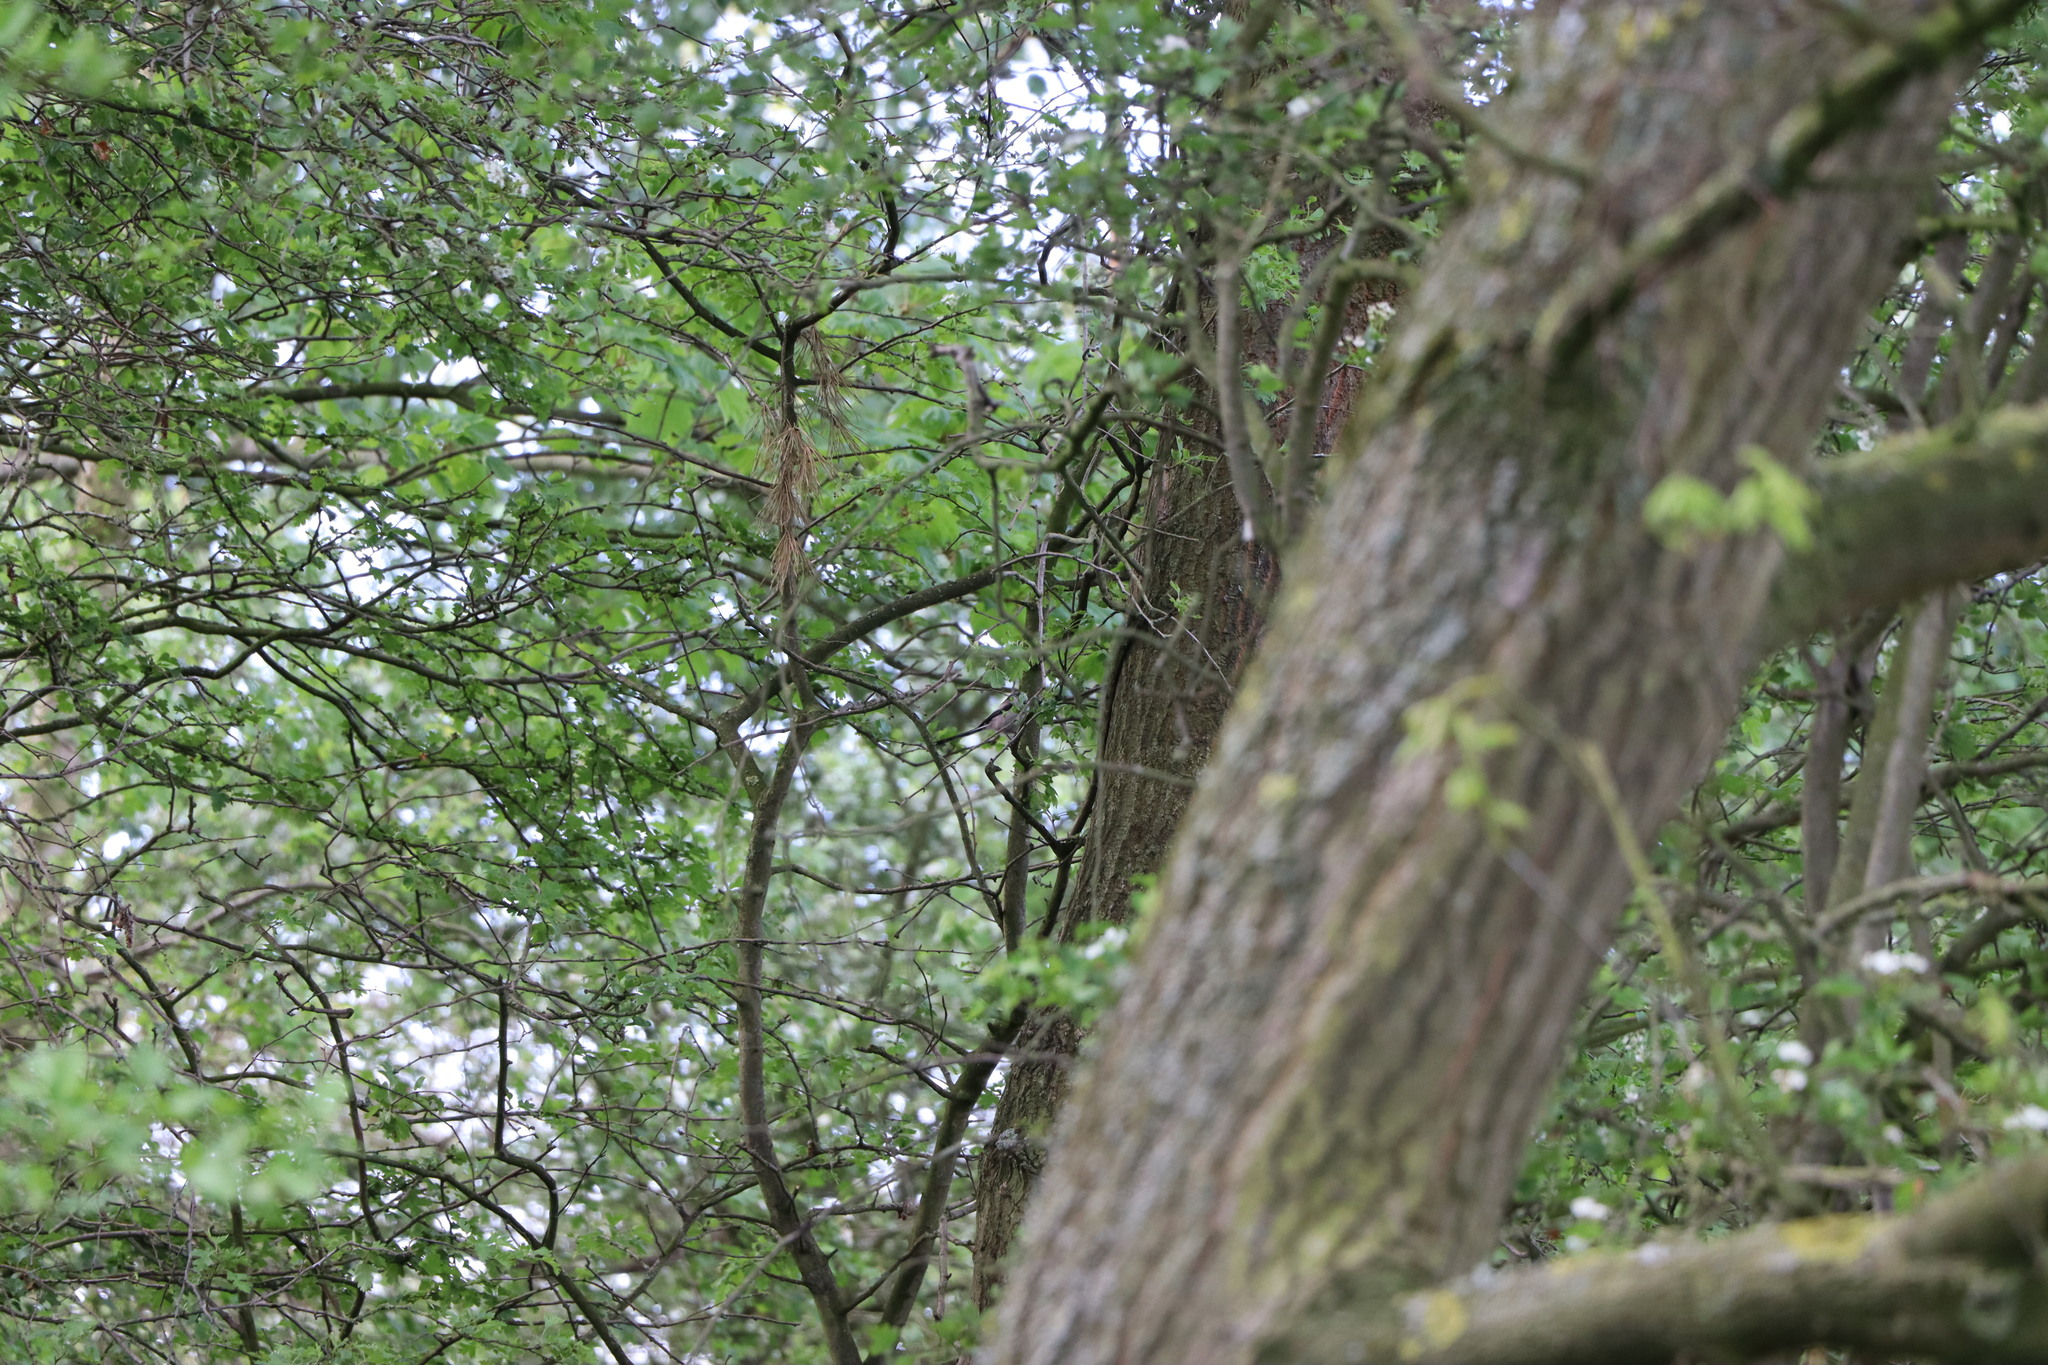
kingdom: Animalia
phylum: Chordata
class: Aves
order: Passeriformes
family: Aegithalidae
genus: Aegithalos
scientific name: Aegithalos caudatus
